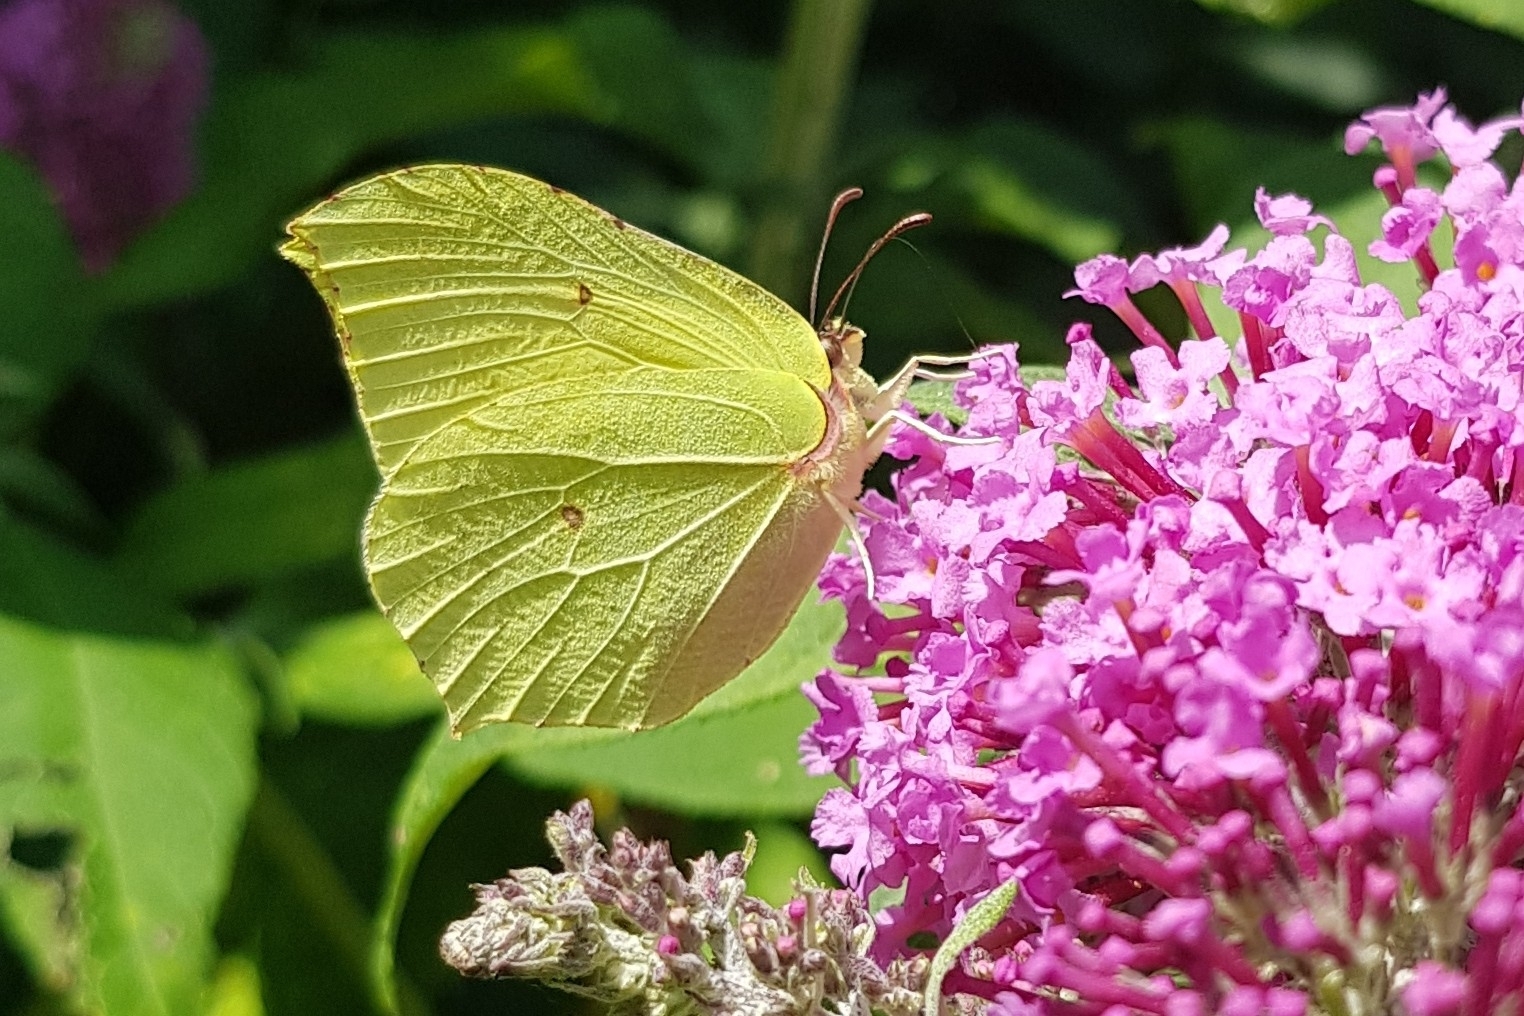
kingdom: Animalia
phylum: Arthropoda
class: Insecta
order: Lepidoptera
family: Pieridae
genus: Gonepteryx
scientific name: Gonepteryx rhamni
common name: Brimstone
